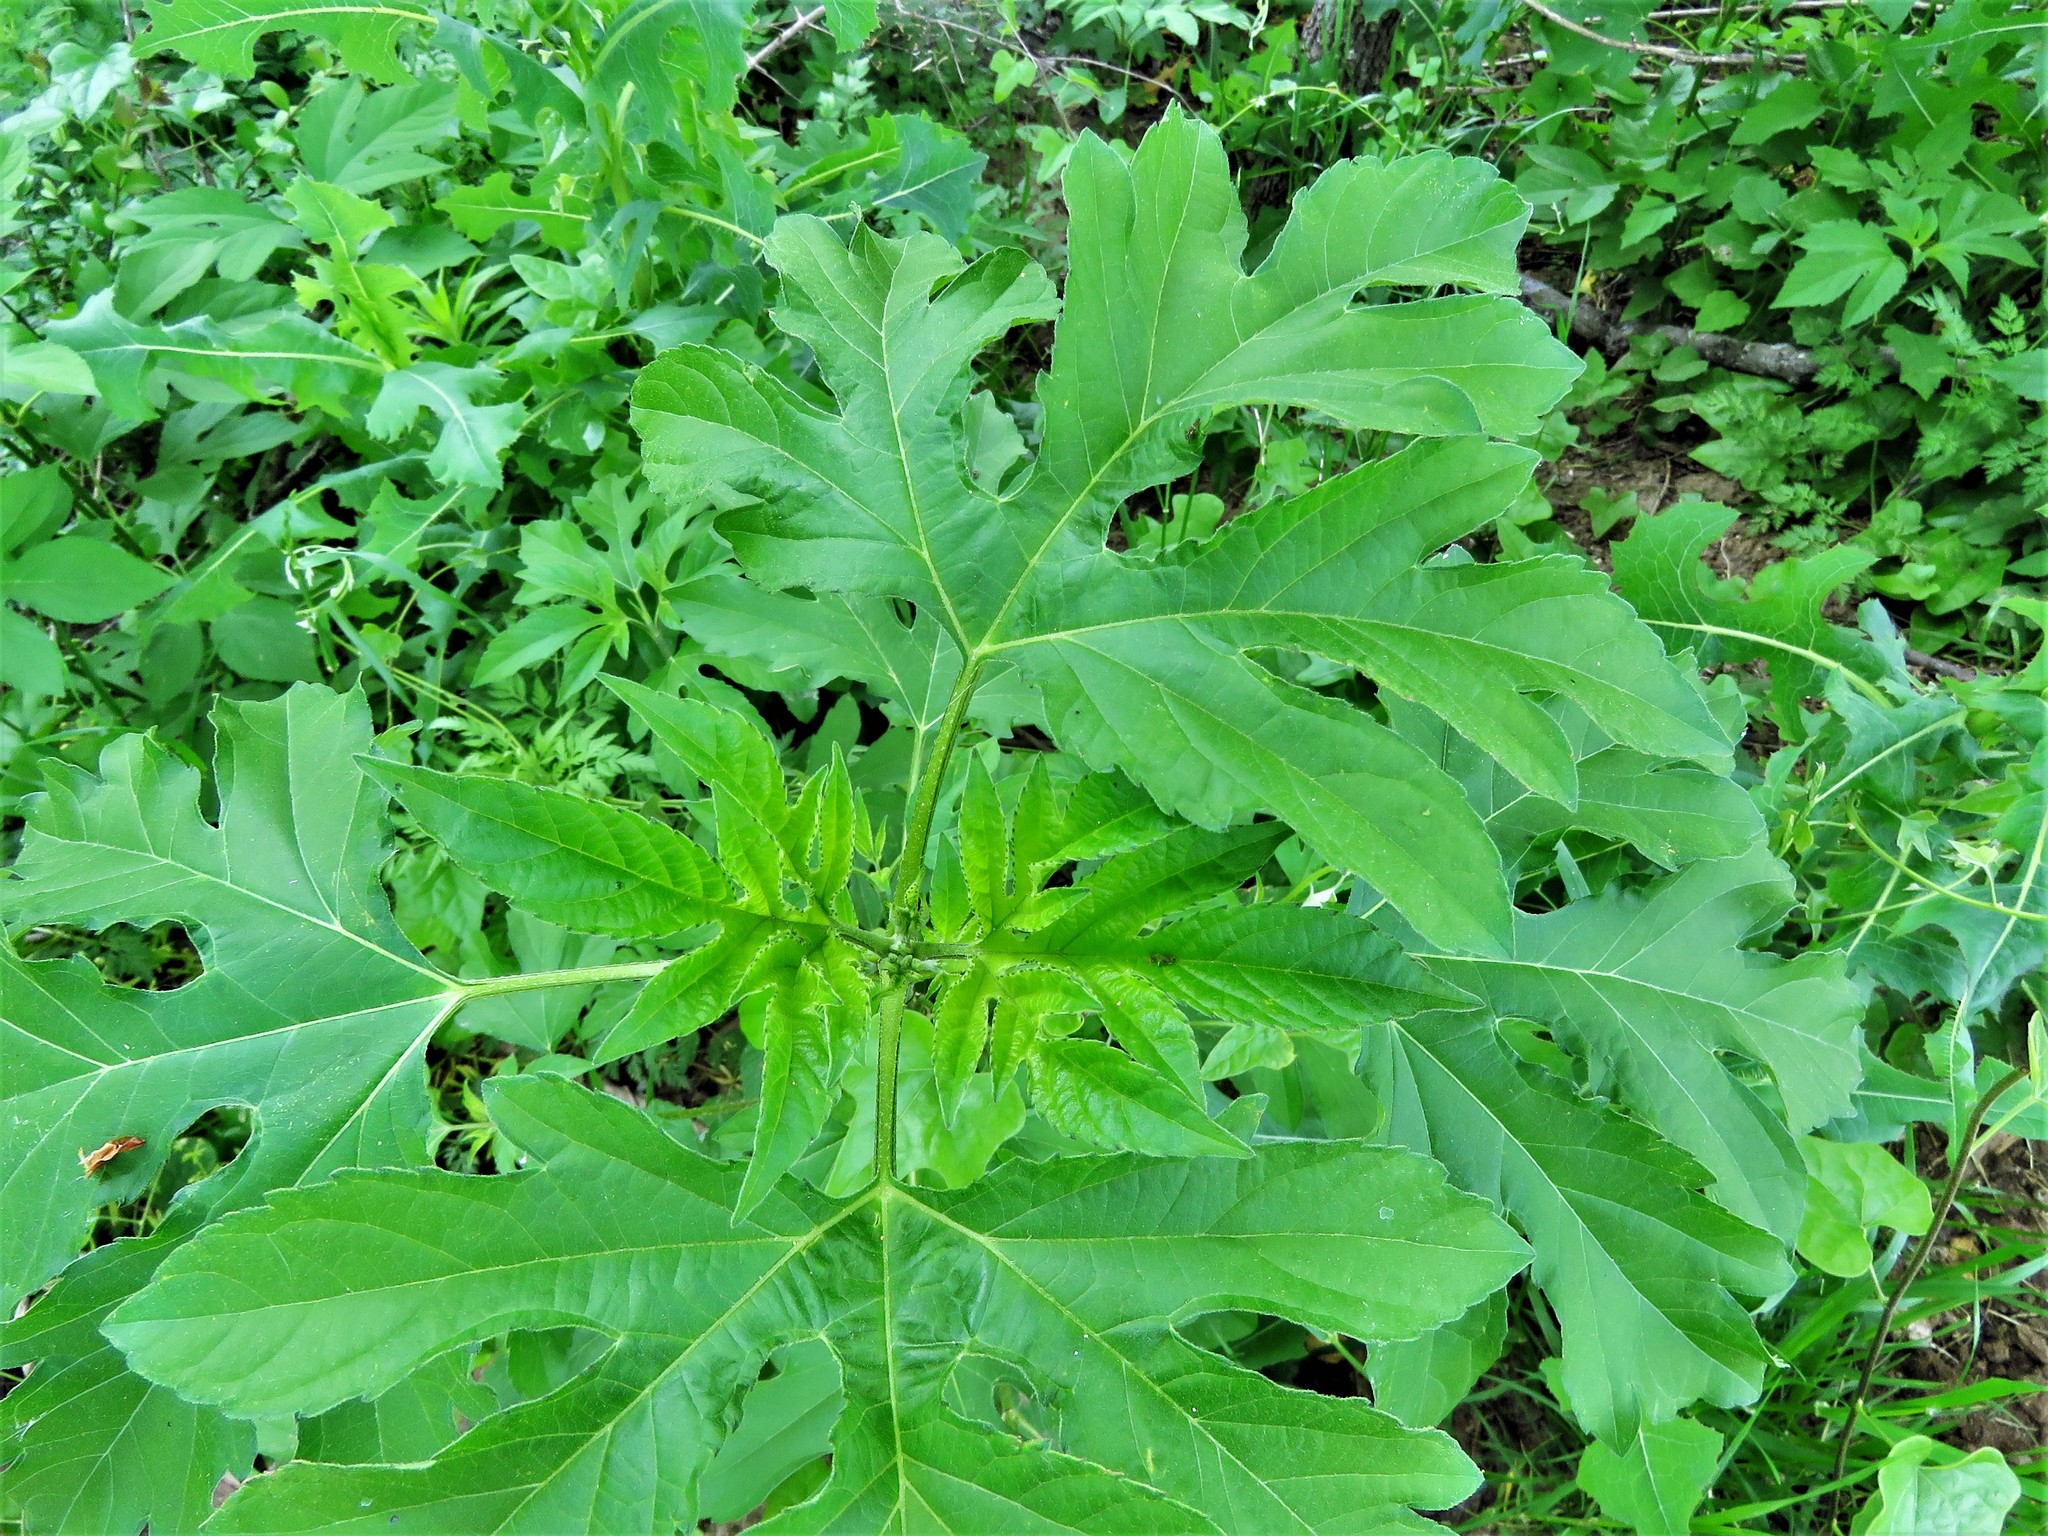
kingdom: Plantae
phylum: Tracheophyta
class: Magnoliopsida
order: Asterales
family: Asteraceae
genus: Ambrosia
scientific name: Ambrosia trifida
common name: Giant ragweed
